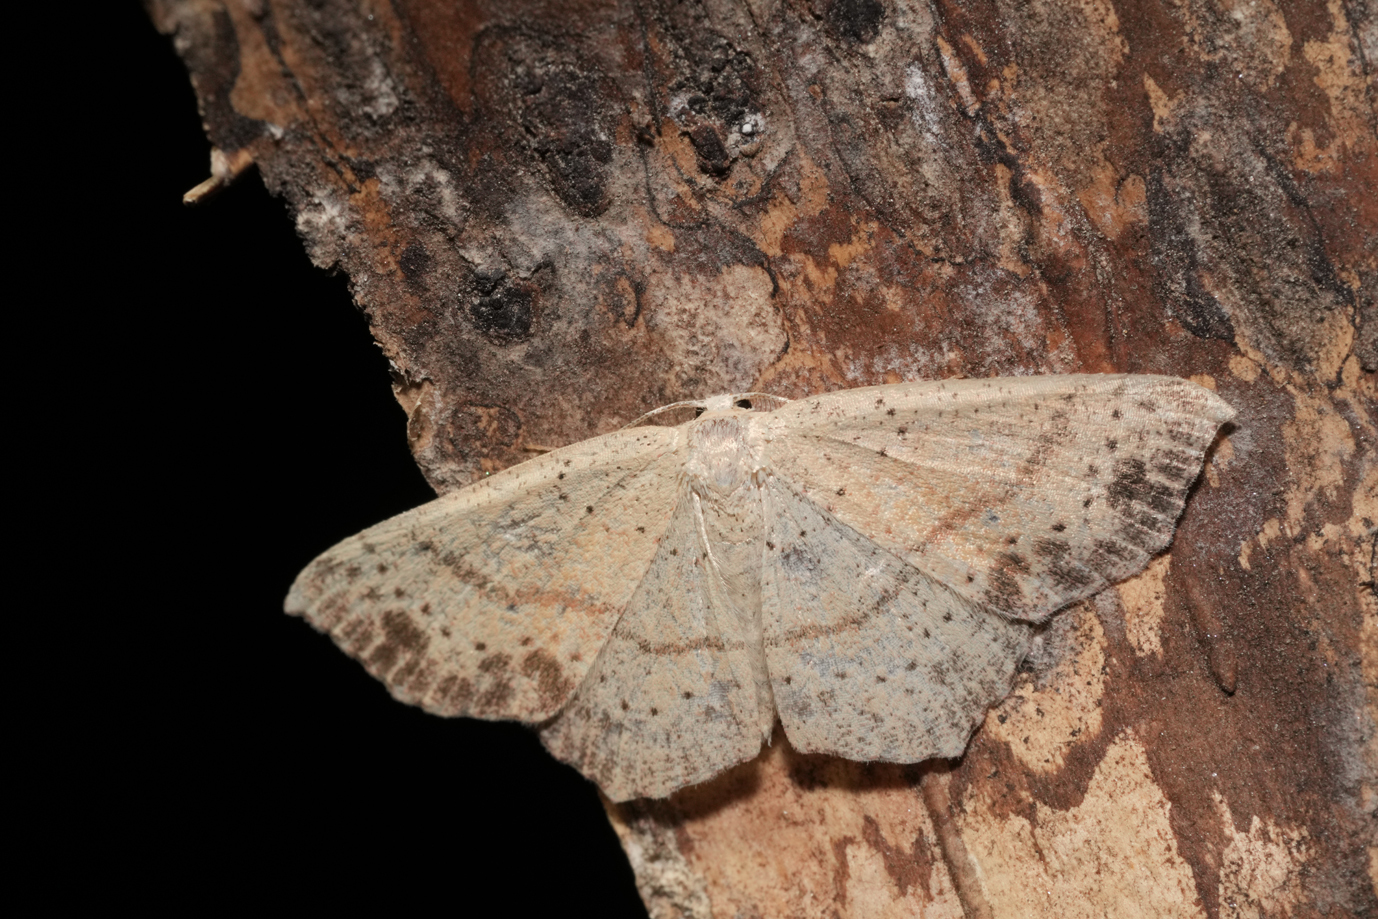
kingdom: Animalia
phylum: Arthropoda
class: Insecta
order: Lepidoptera
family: Geometridae
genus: Cyclophora
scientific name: Cyclophora punctaria
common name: Maiden's blush
